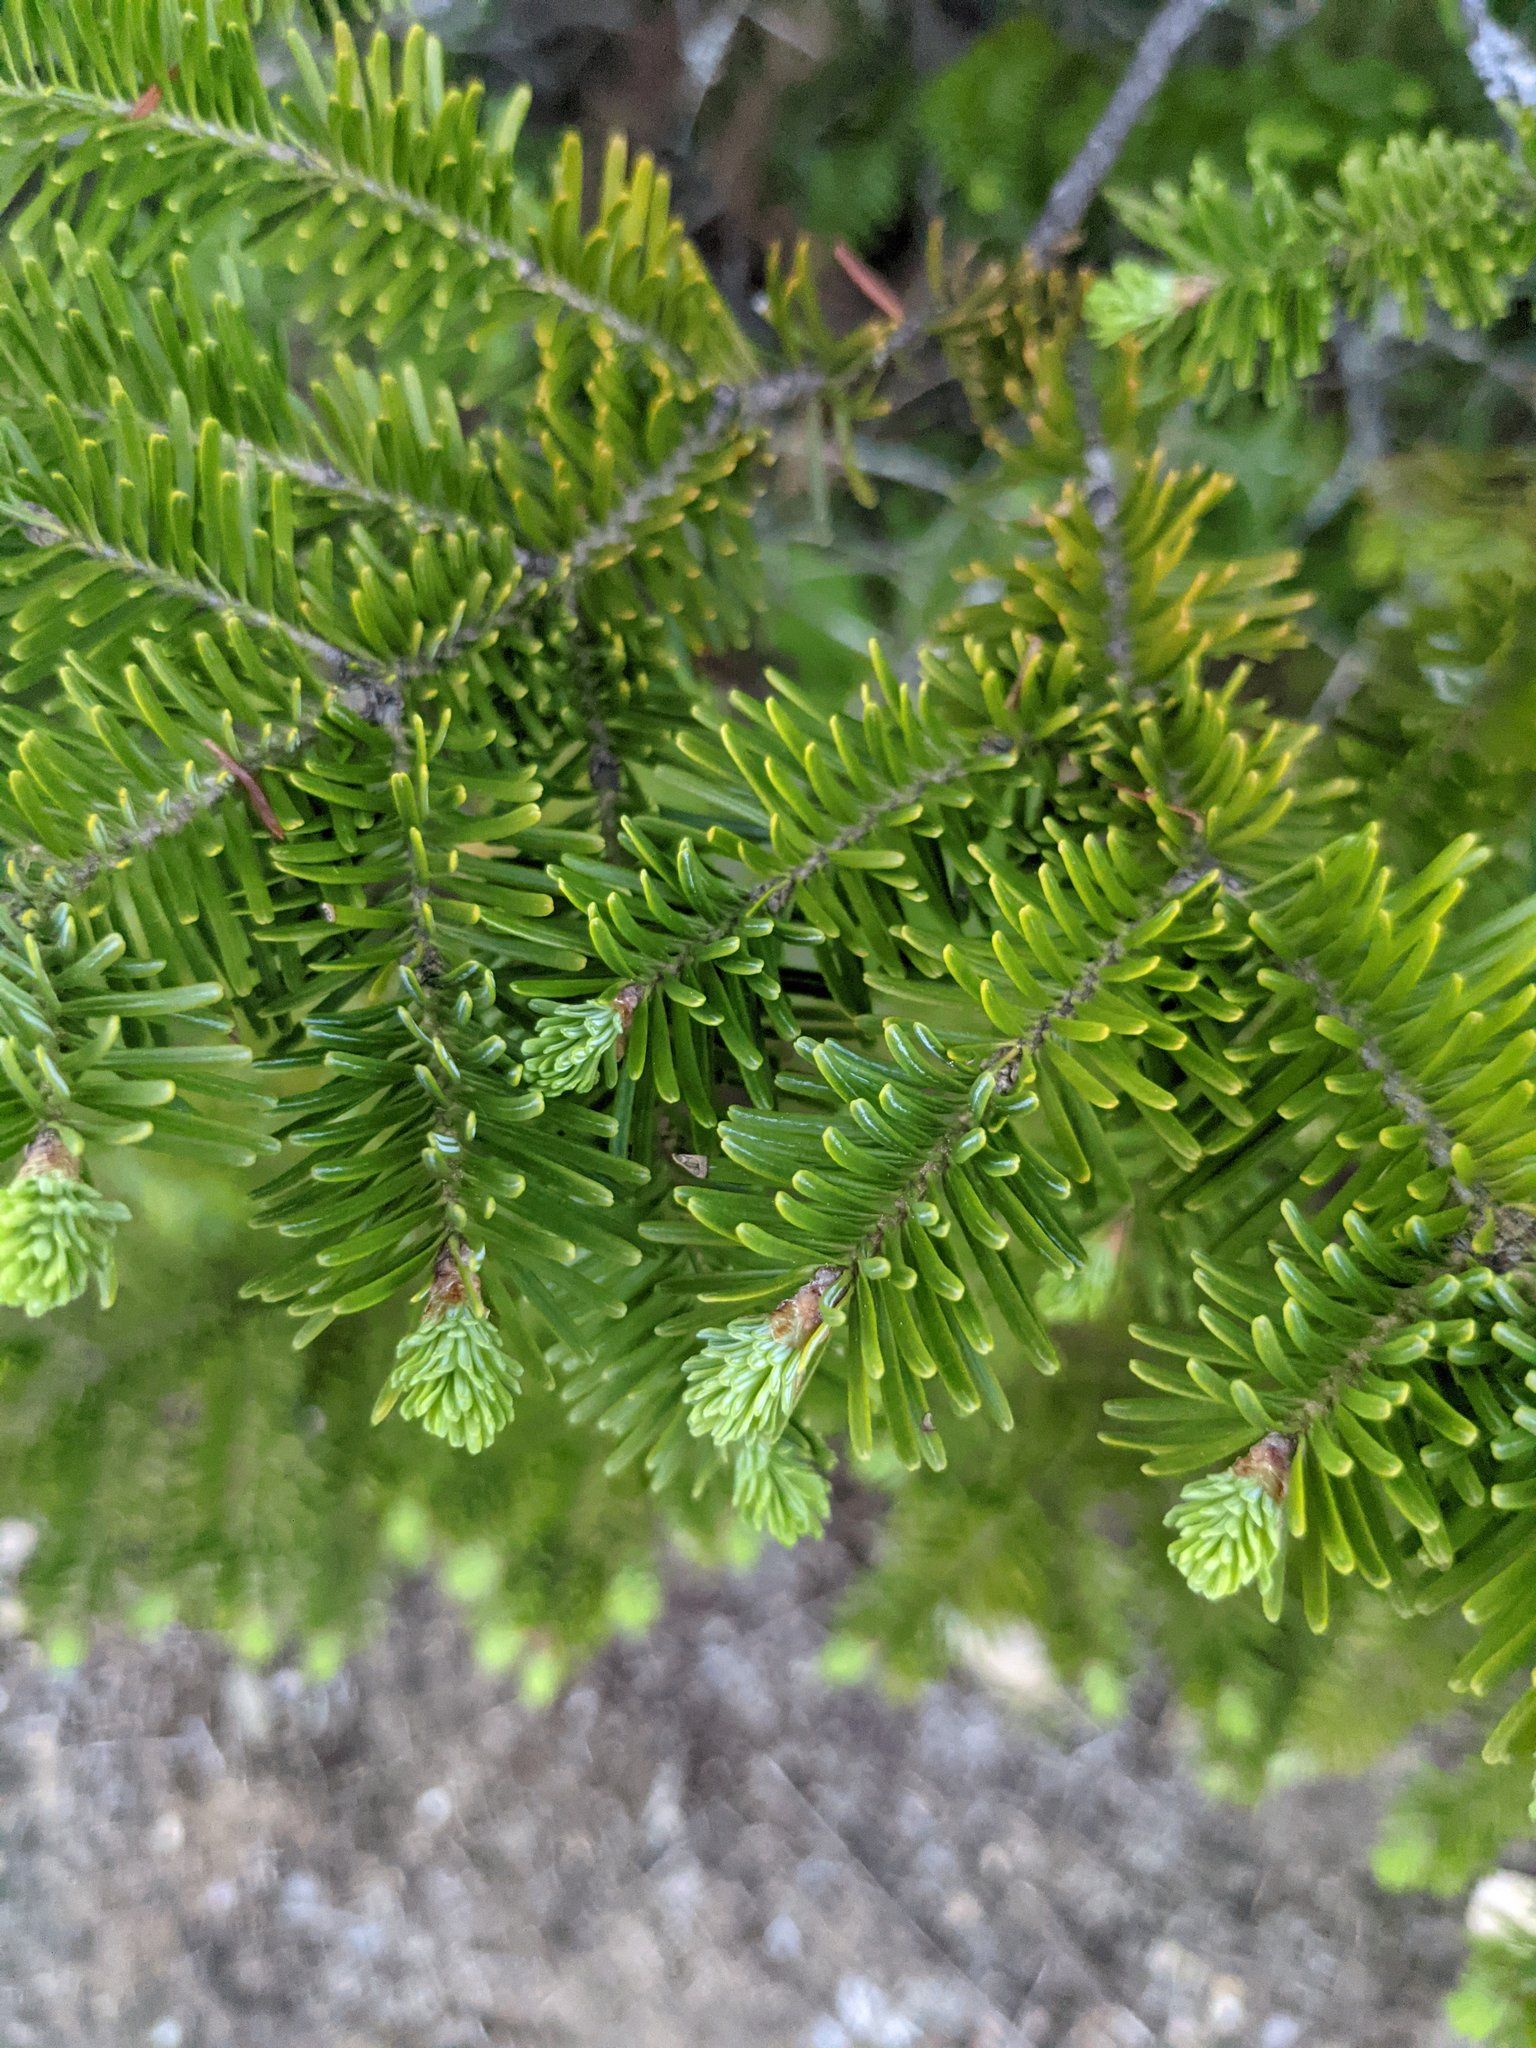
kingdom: Plantae
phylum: Tracheophyta
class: Pinopsida
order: Pinales
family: Pinaceae
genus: Abies
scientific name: Abies balsamea
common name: Balsam fir
